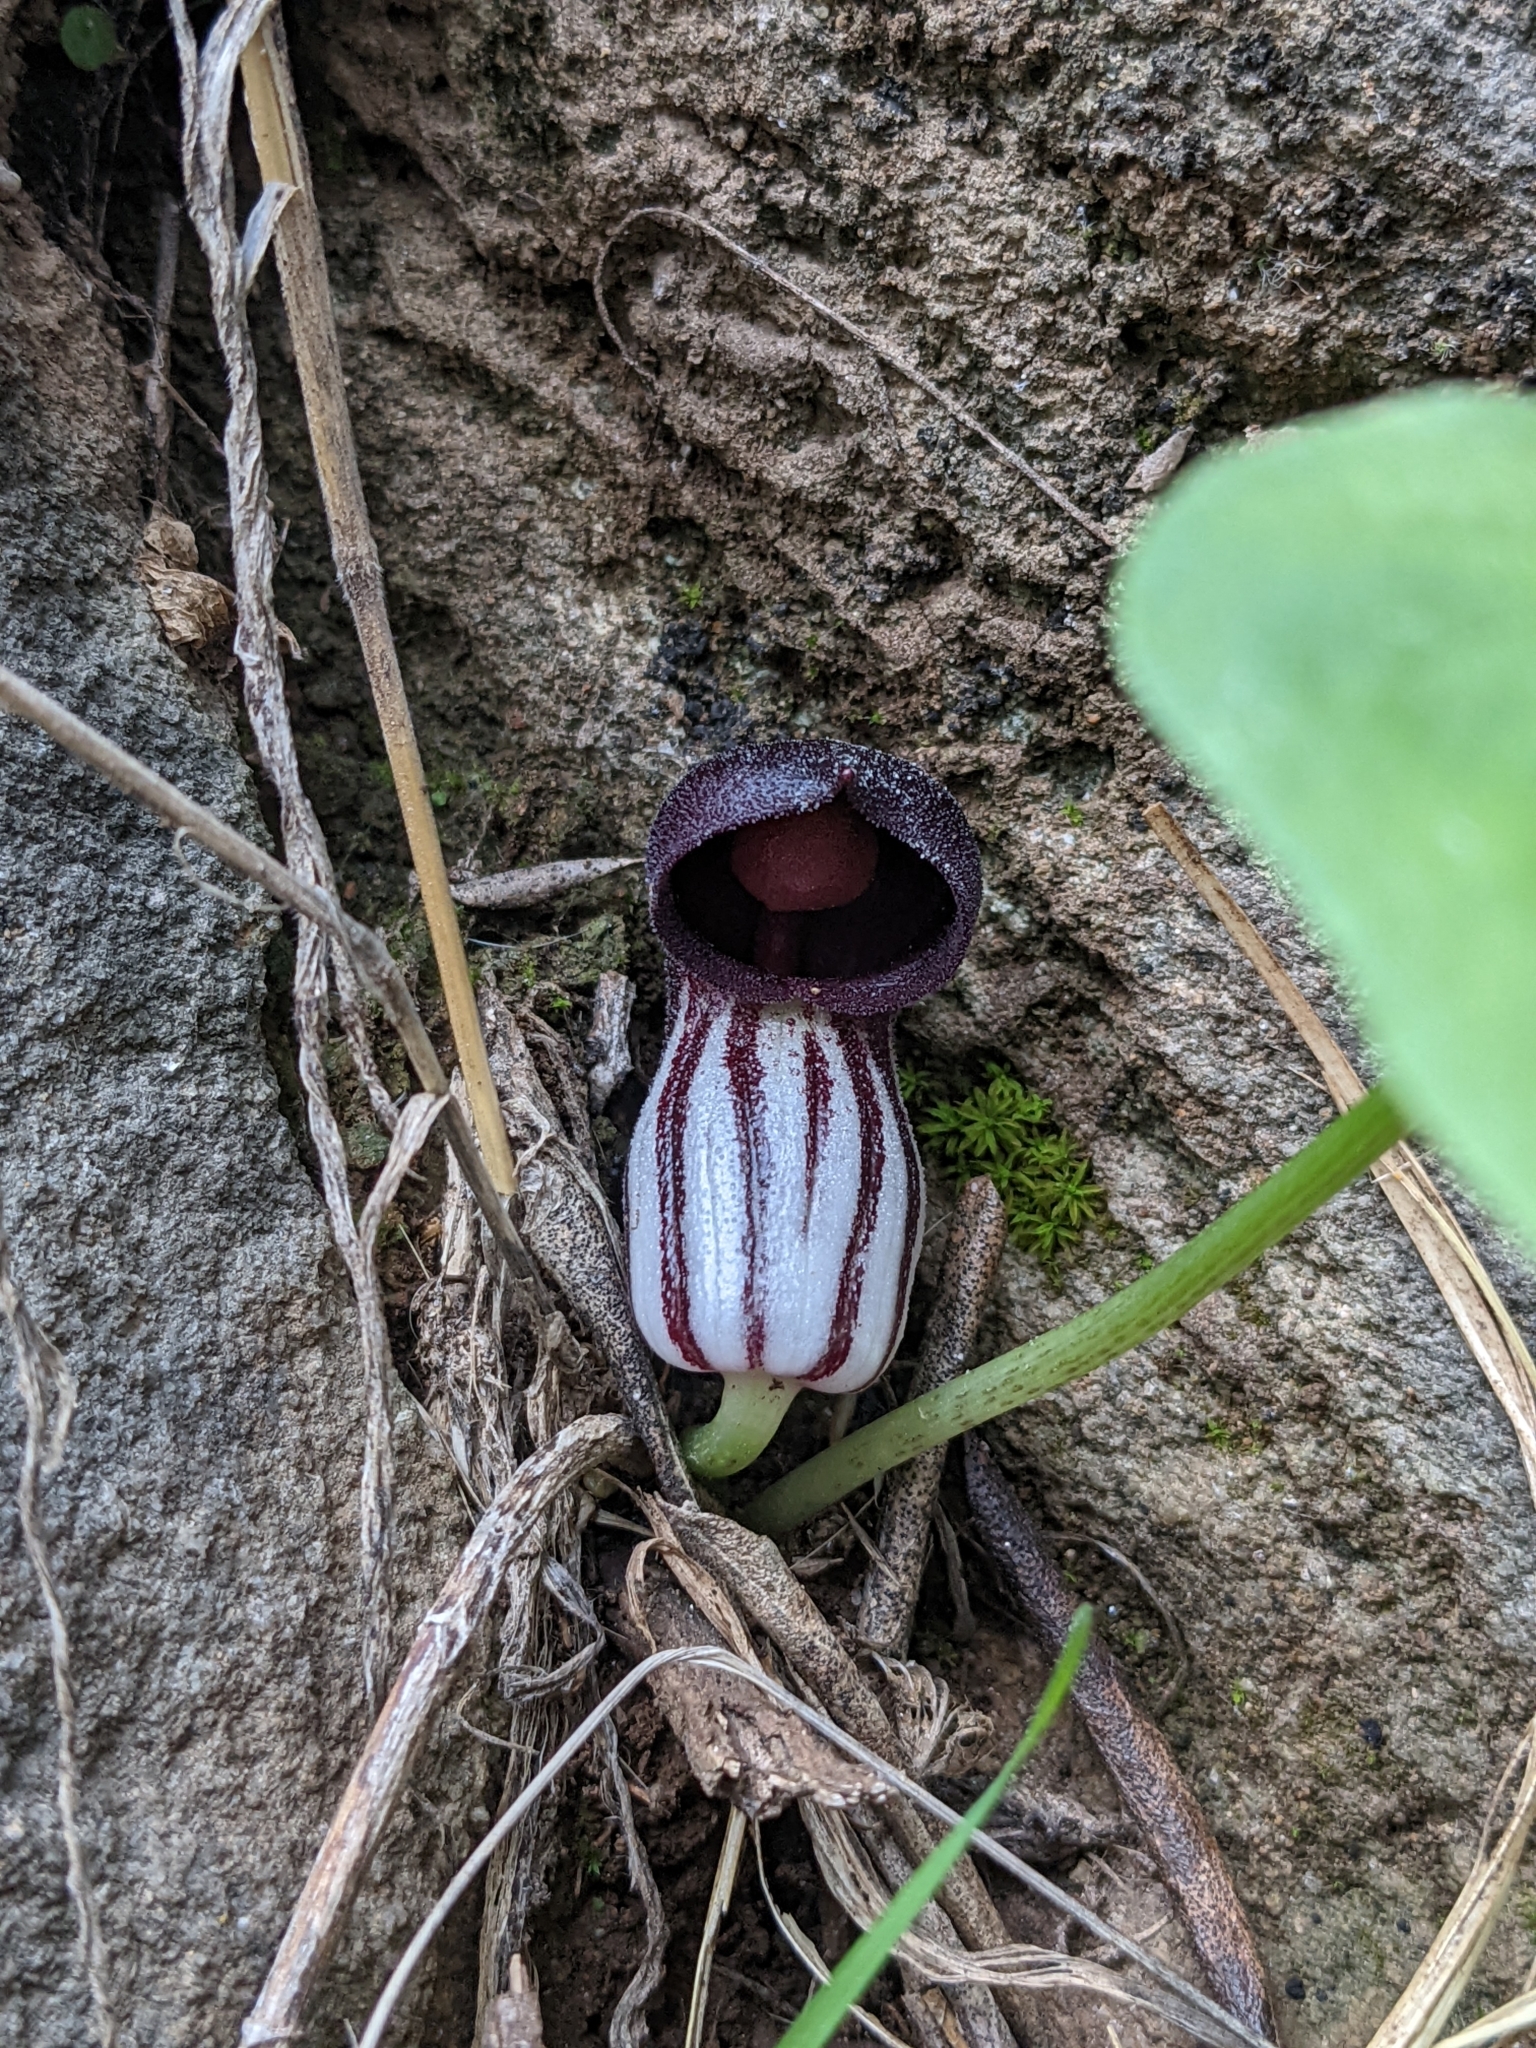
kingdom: Plantae
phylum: Tracheophyta
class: Liliopsida
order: Alismatales
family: Araceae
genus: Arisarum
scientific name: Arisarum simorrhinum
